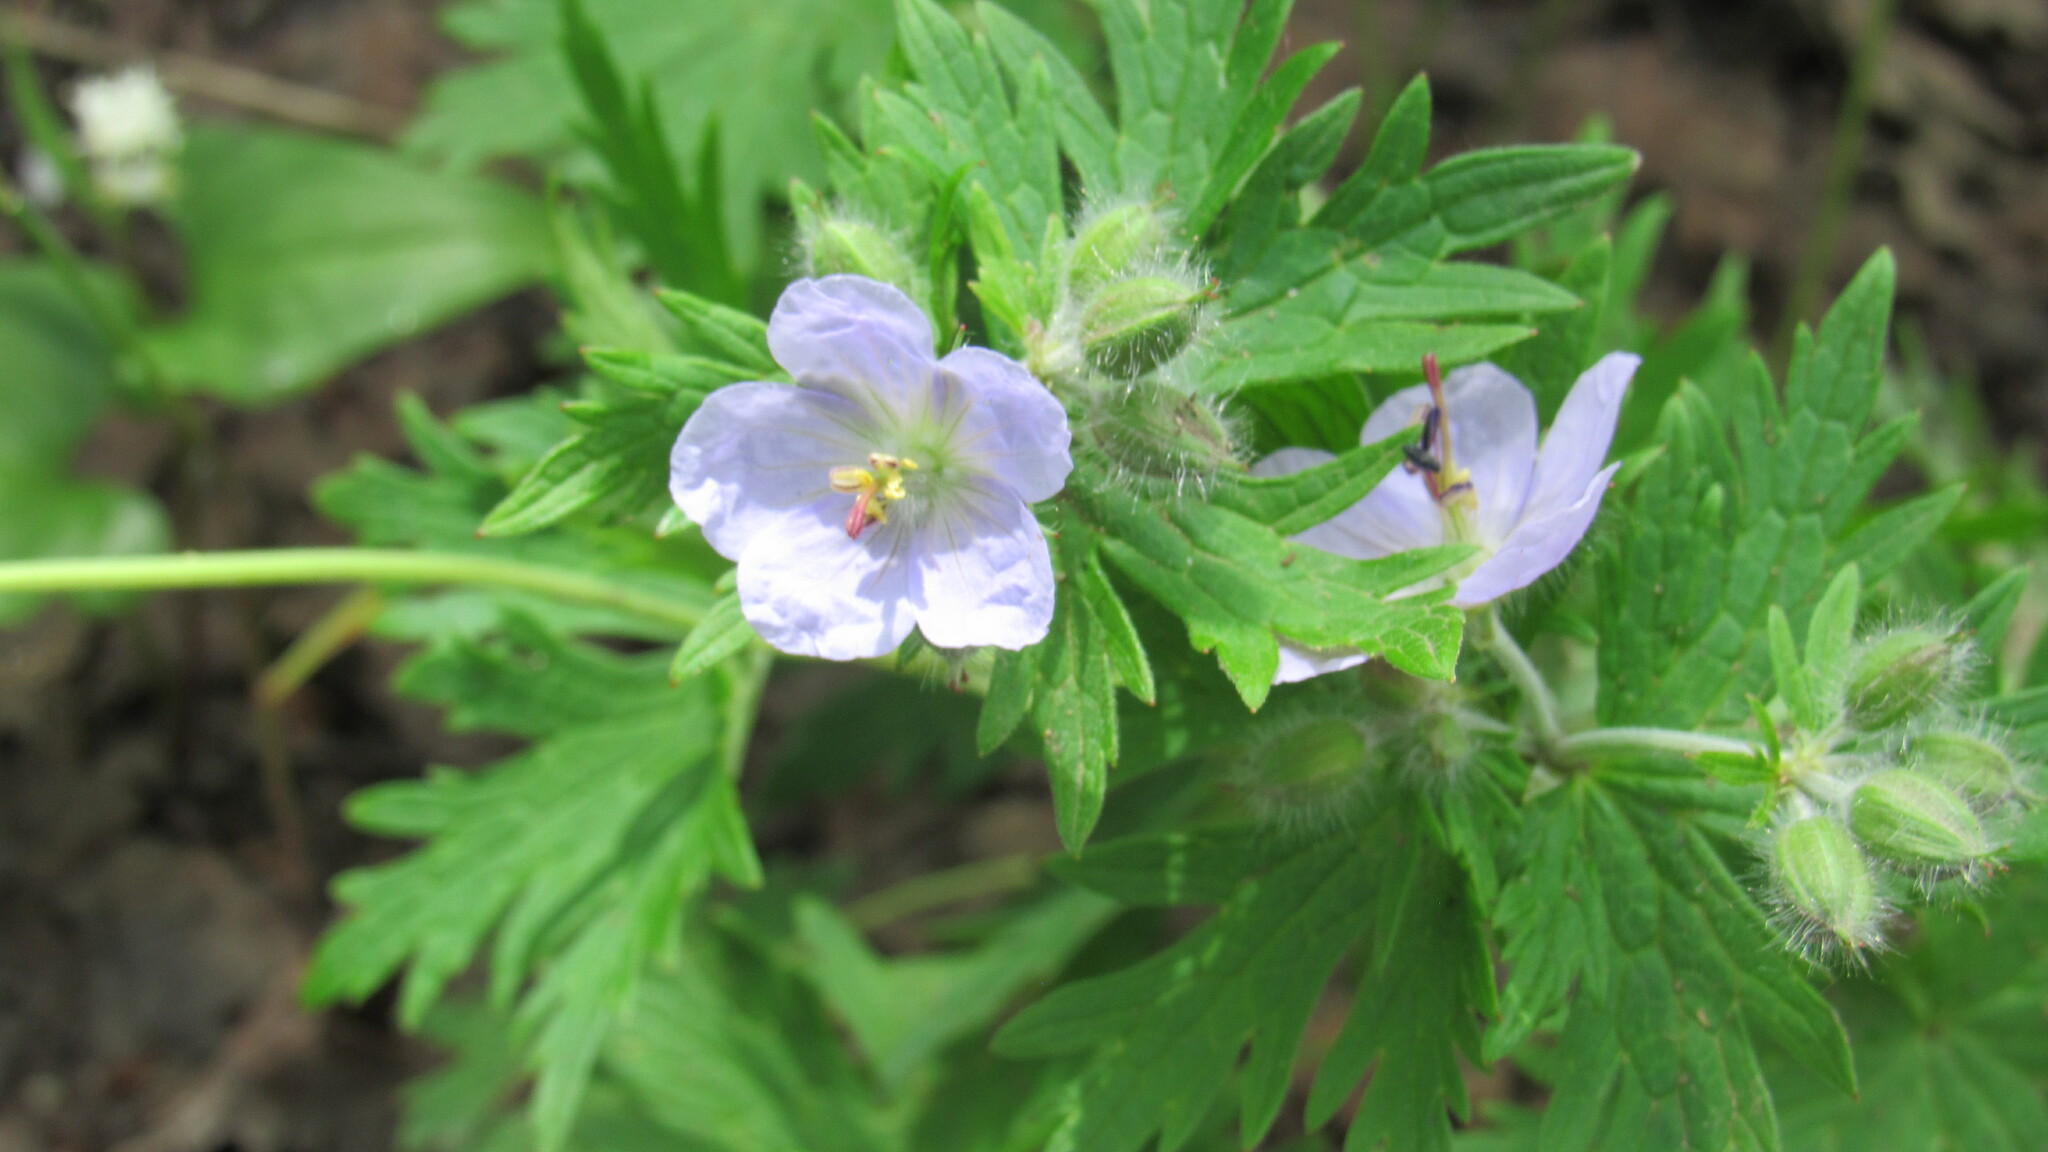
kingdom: Plantae
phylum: Tracheophyta
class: Magnoliopsida
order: Geraniales
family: Geraniaceae
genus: Geranium
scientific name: Geranium erianthum
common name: Northern crane's-bill
